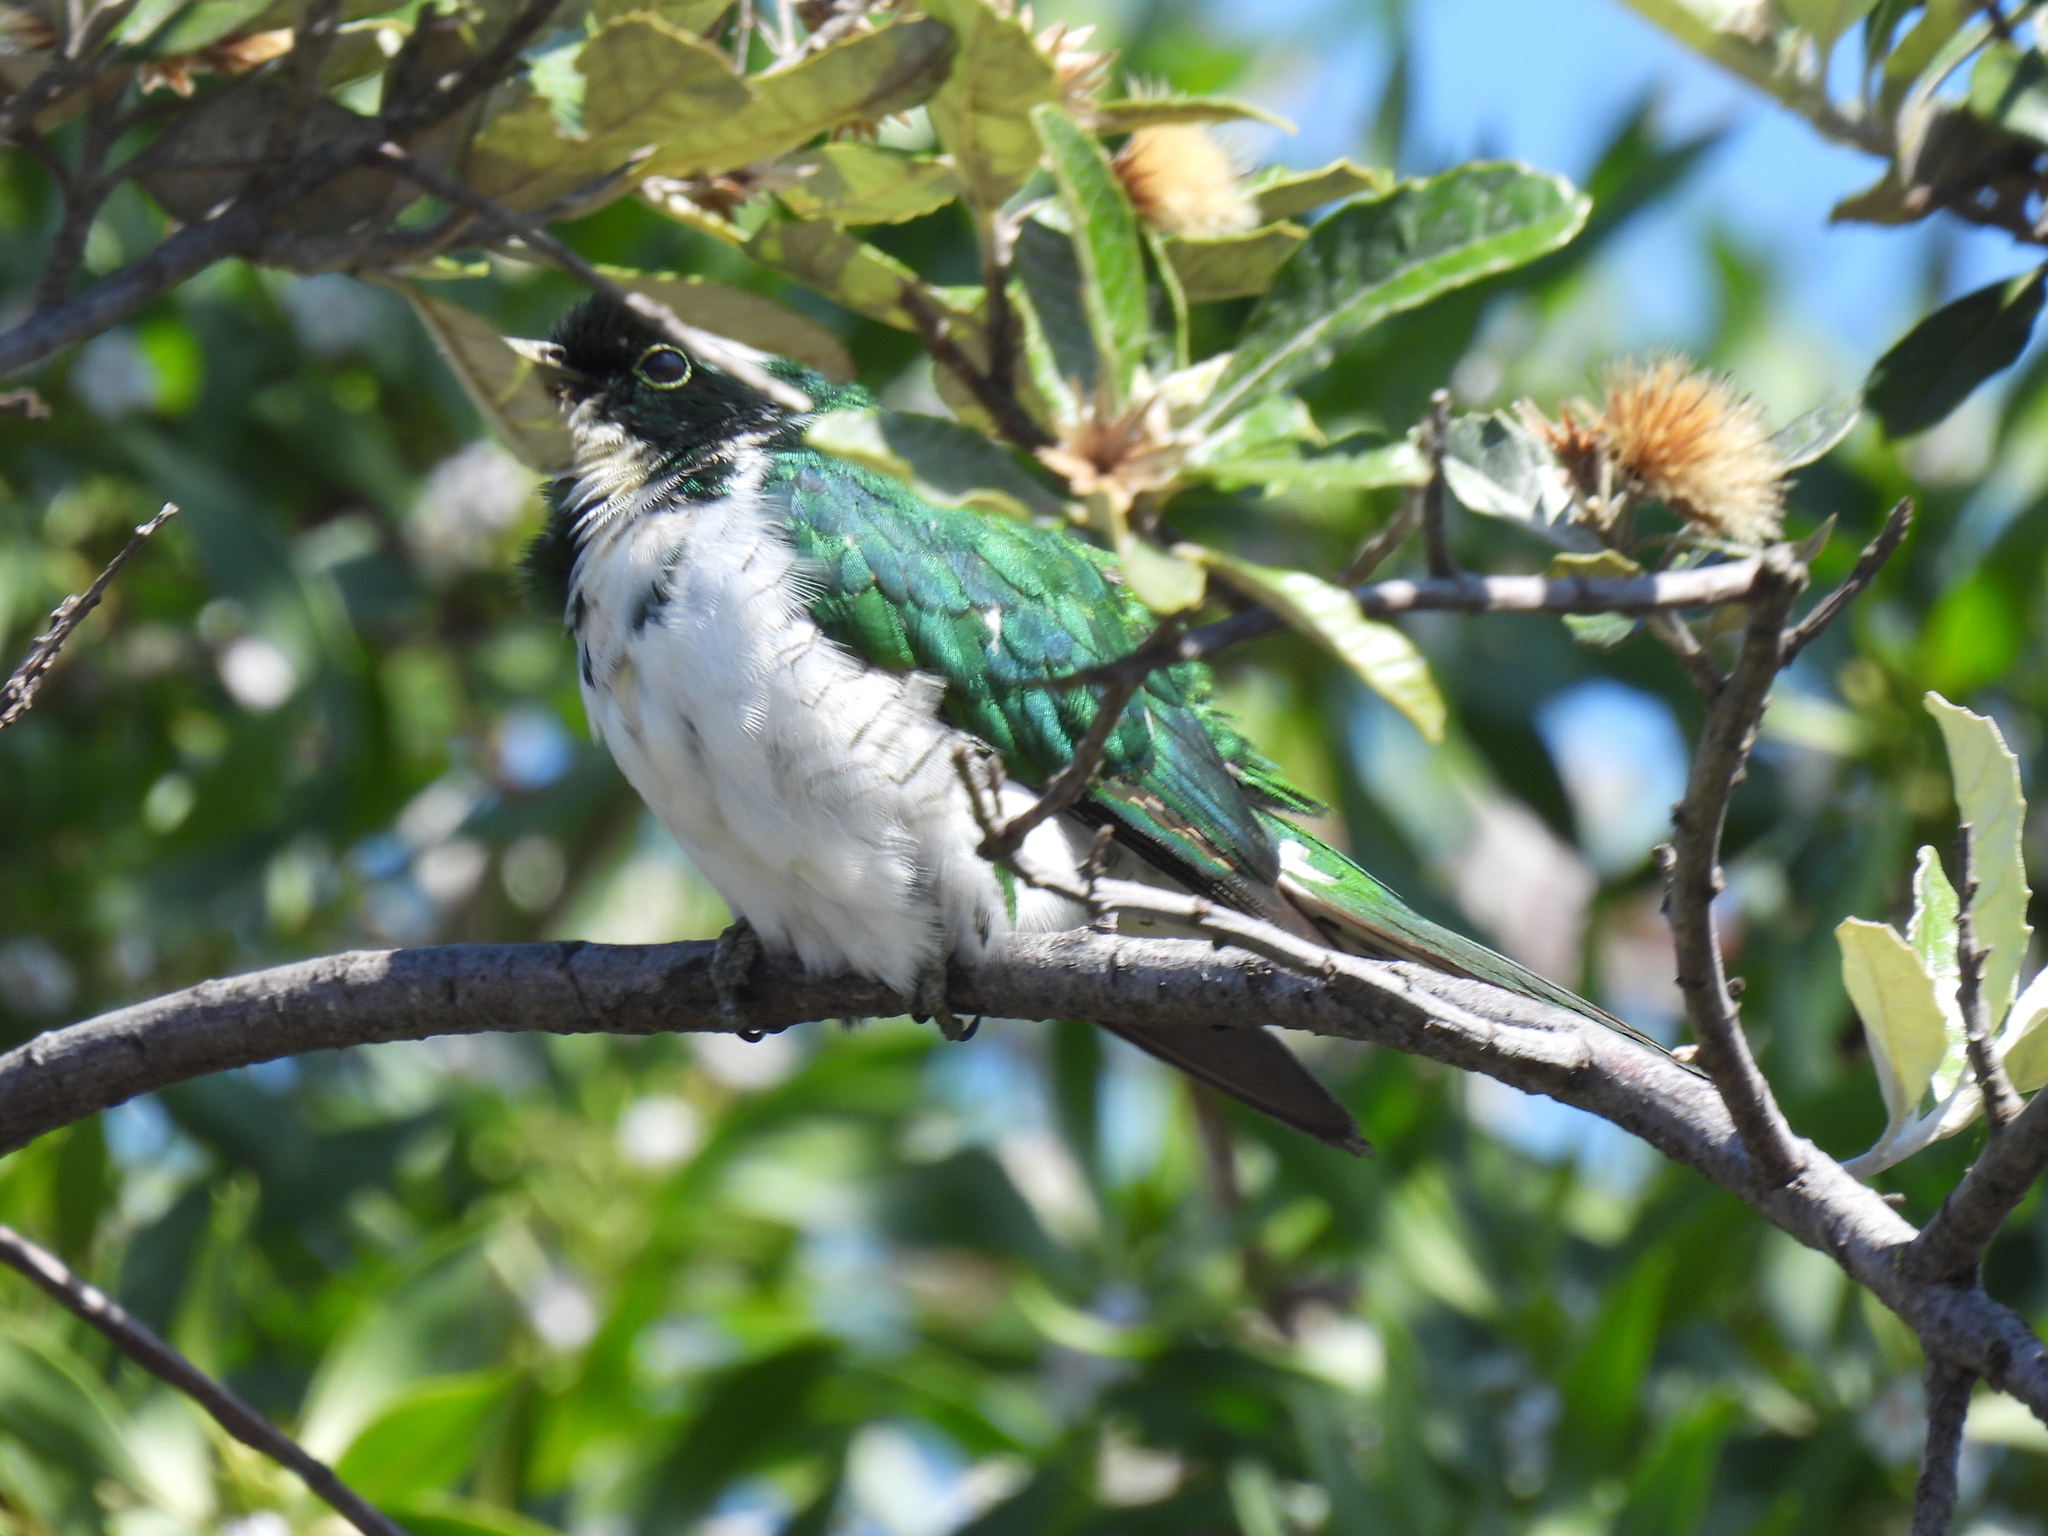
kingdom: Animalia
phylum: Chordata
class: Aves
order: Cuculiformes
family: Cuculidae
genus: Chrysococcyx
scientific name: Chrysococcyx klaas
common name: Klaas's cuckoo
